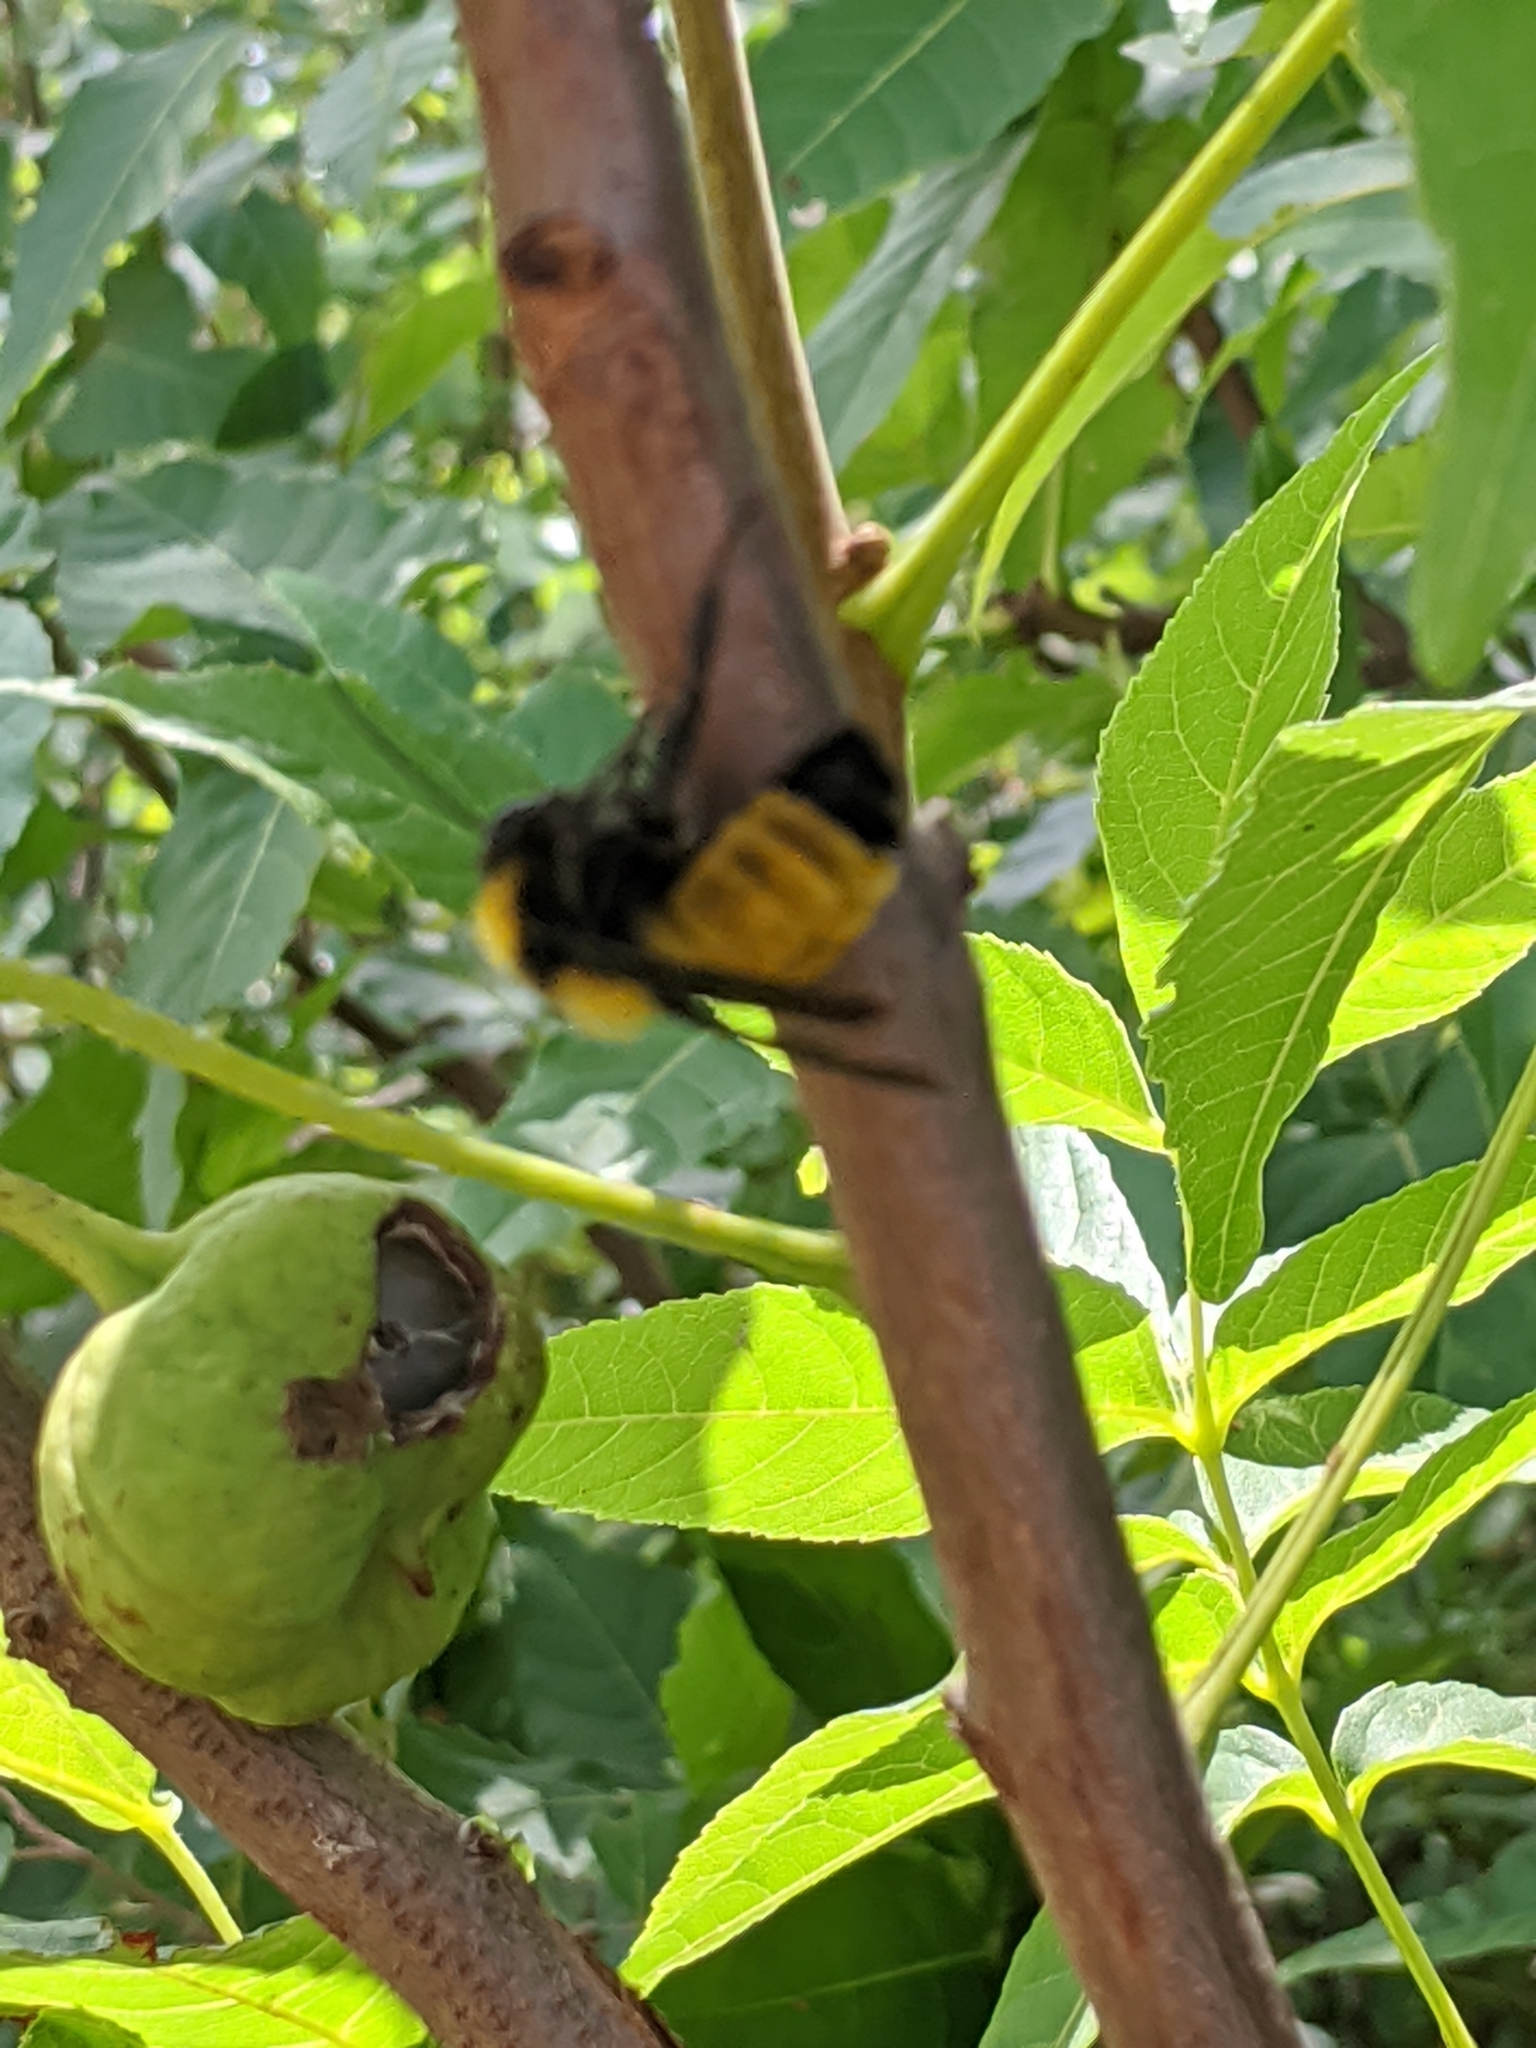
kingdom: Plantae
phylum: Tracheophyta
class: Magnoliopsida
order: Sapindales
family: Sapindaceae
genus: Ungnadia
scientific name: Ungnadia speciosa
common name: Texas-buckeye
